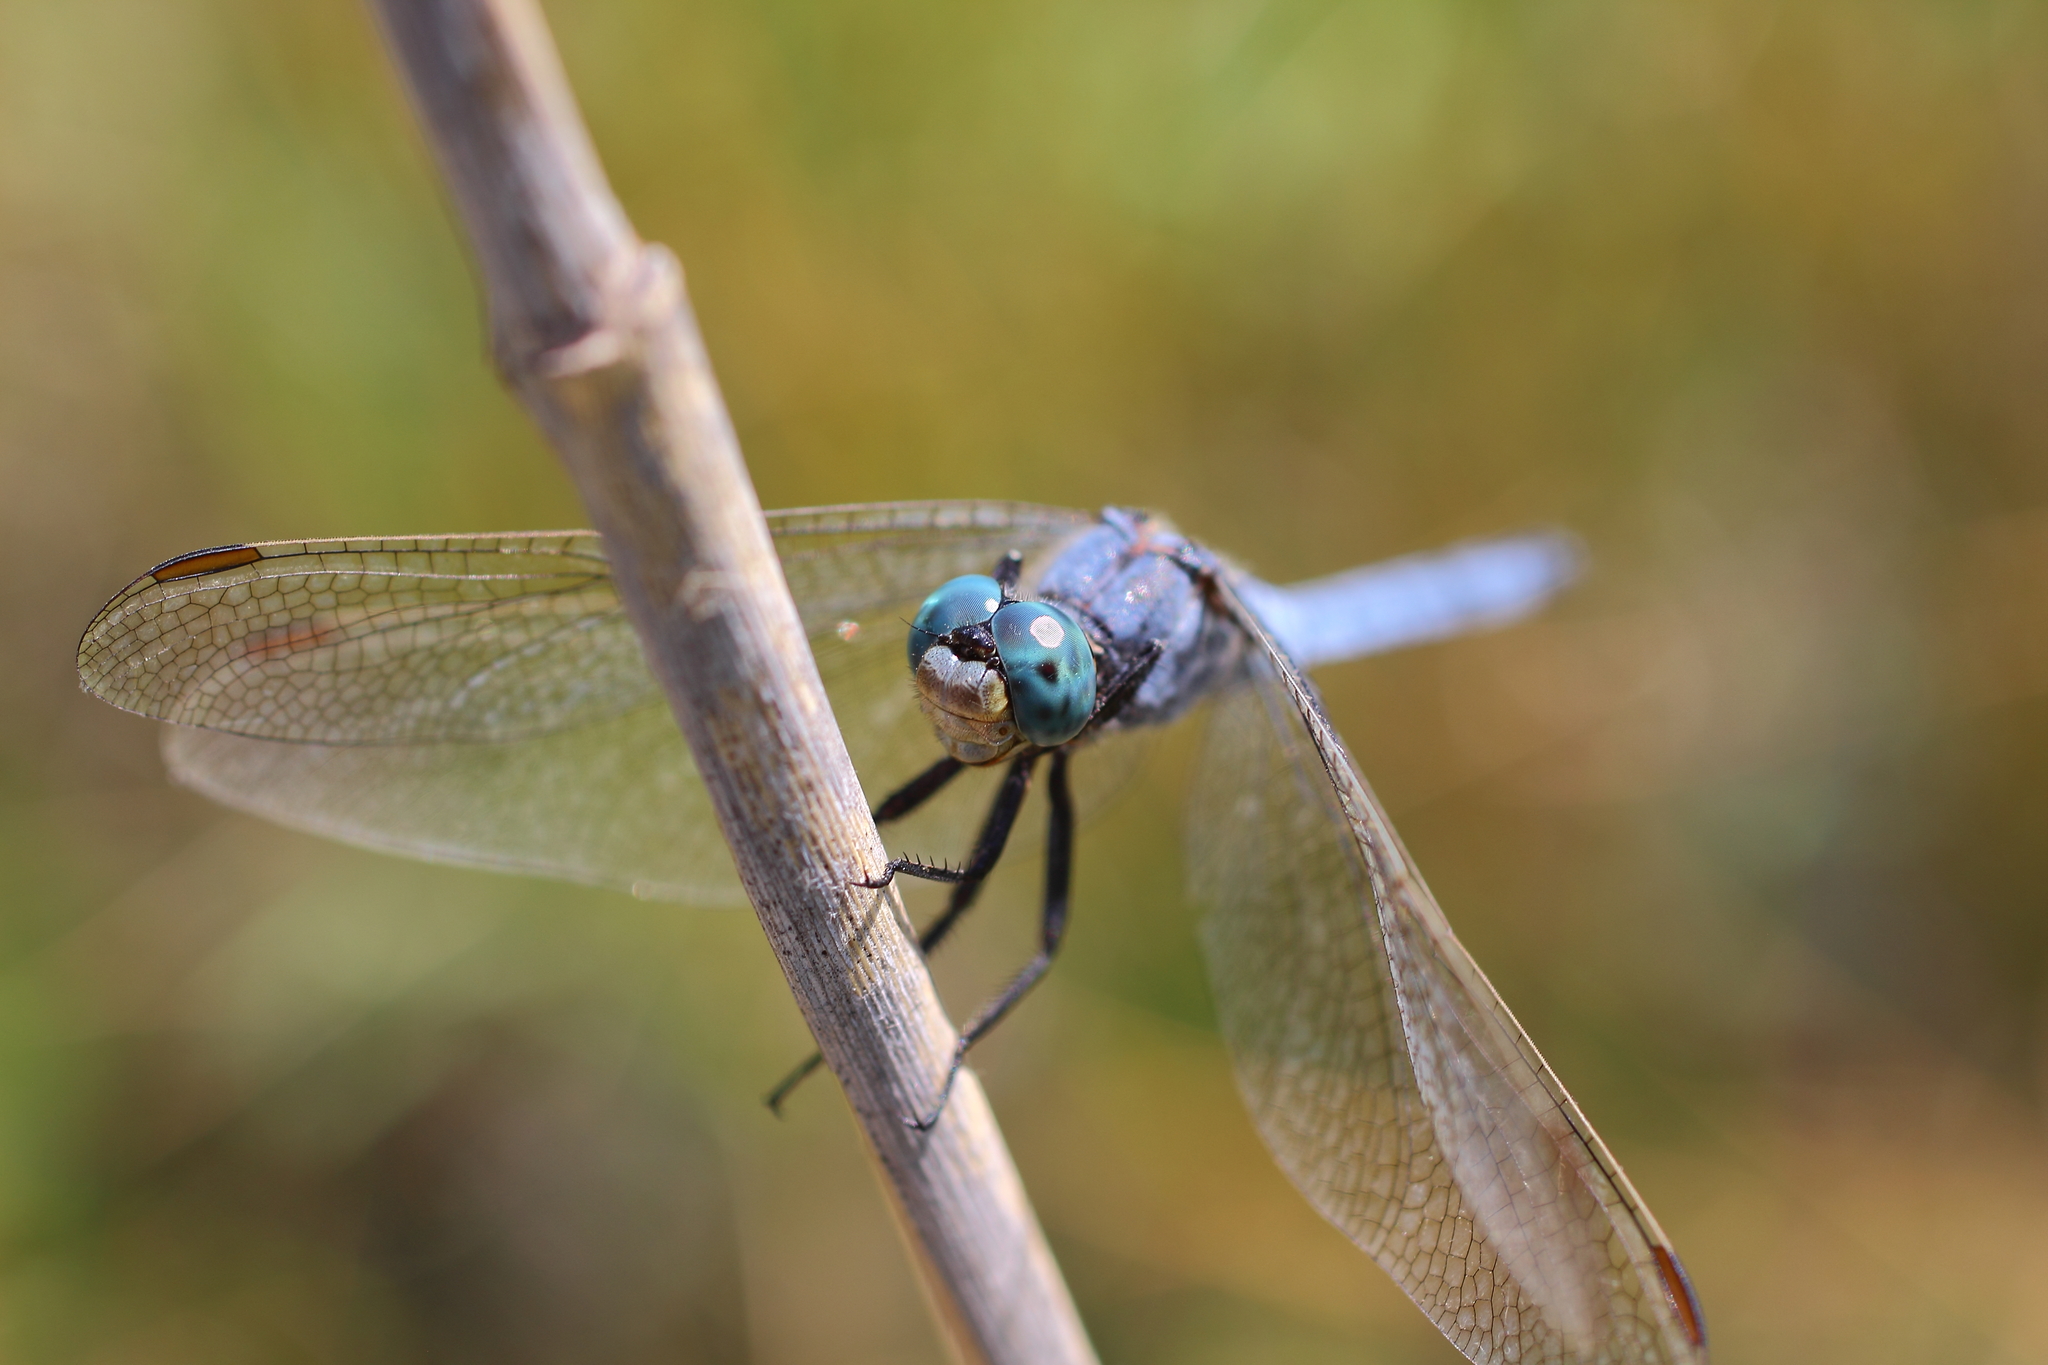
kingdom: Animalia
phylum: Arthropoda
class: Insecta
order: Odonata
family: Libellulidae
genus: Orthetrum
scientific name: Orthetrum coerulescens
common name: Keeled skimmer
